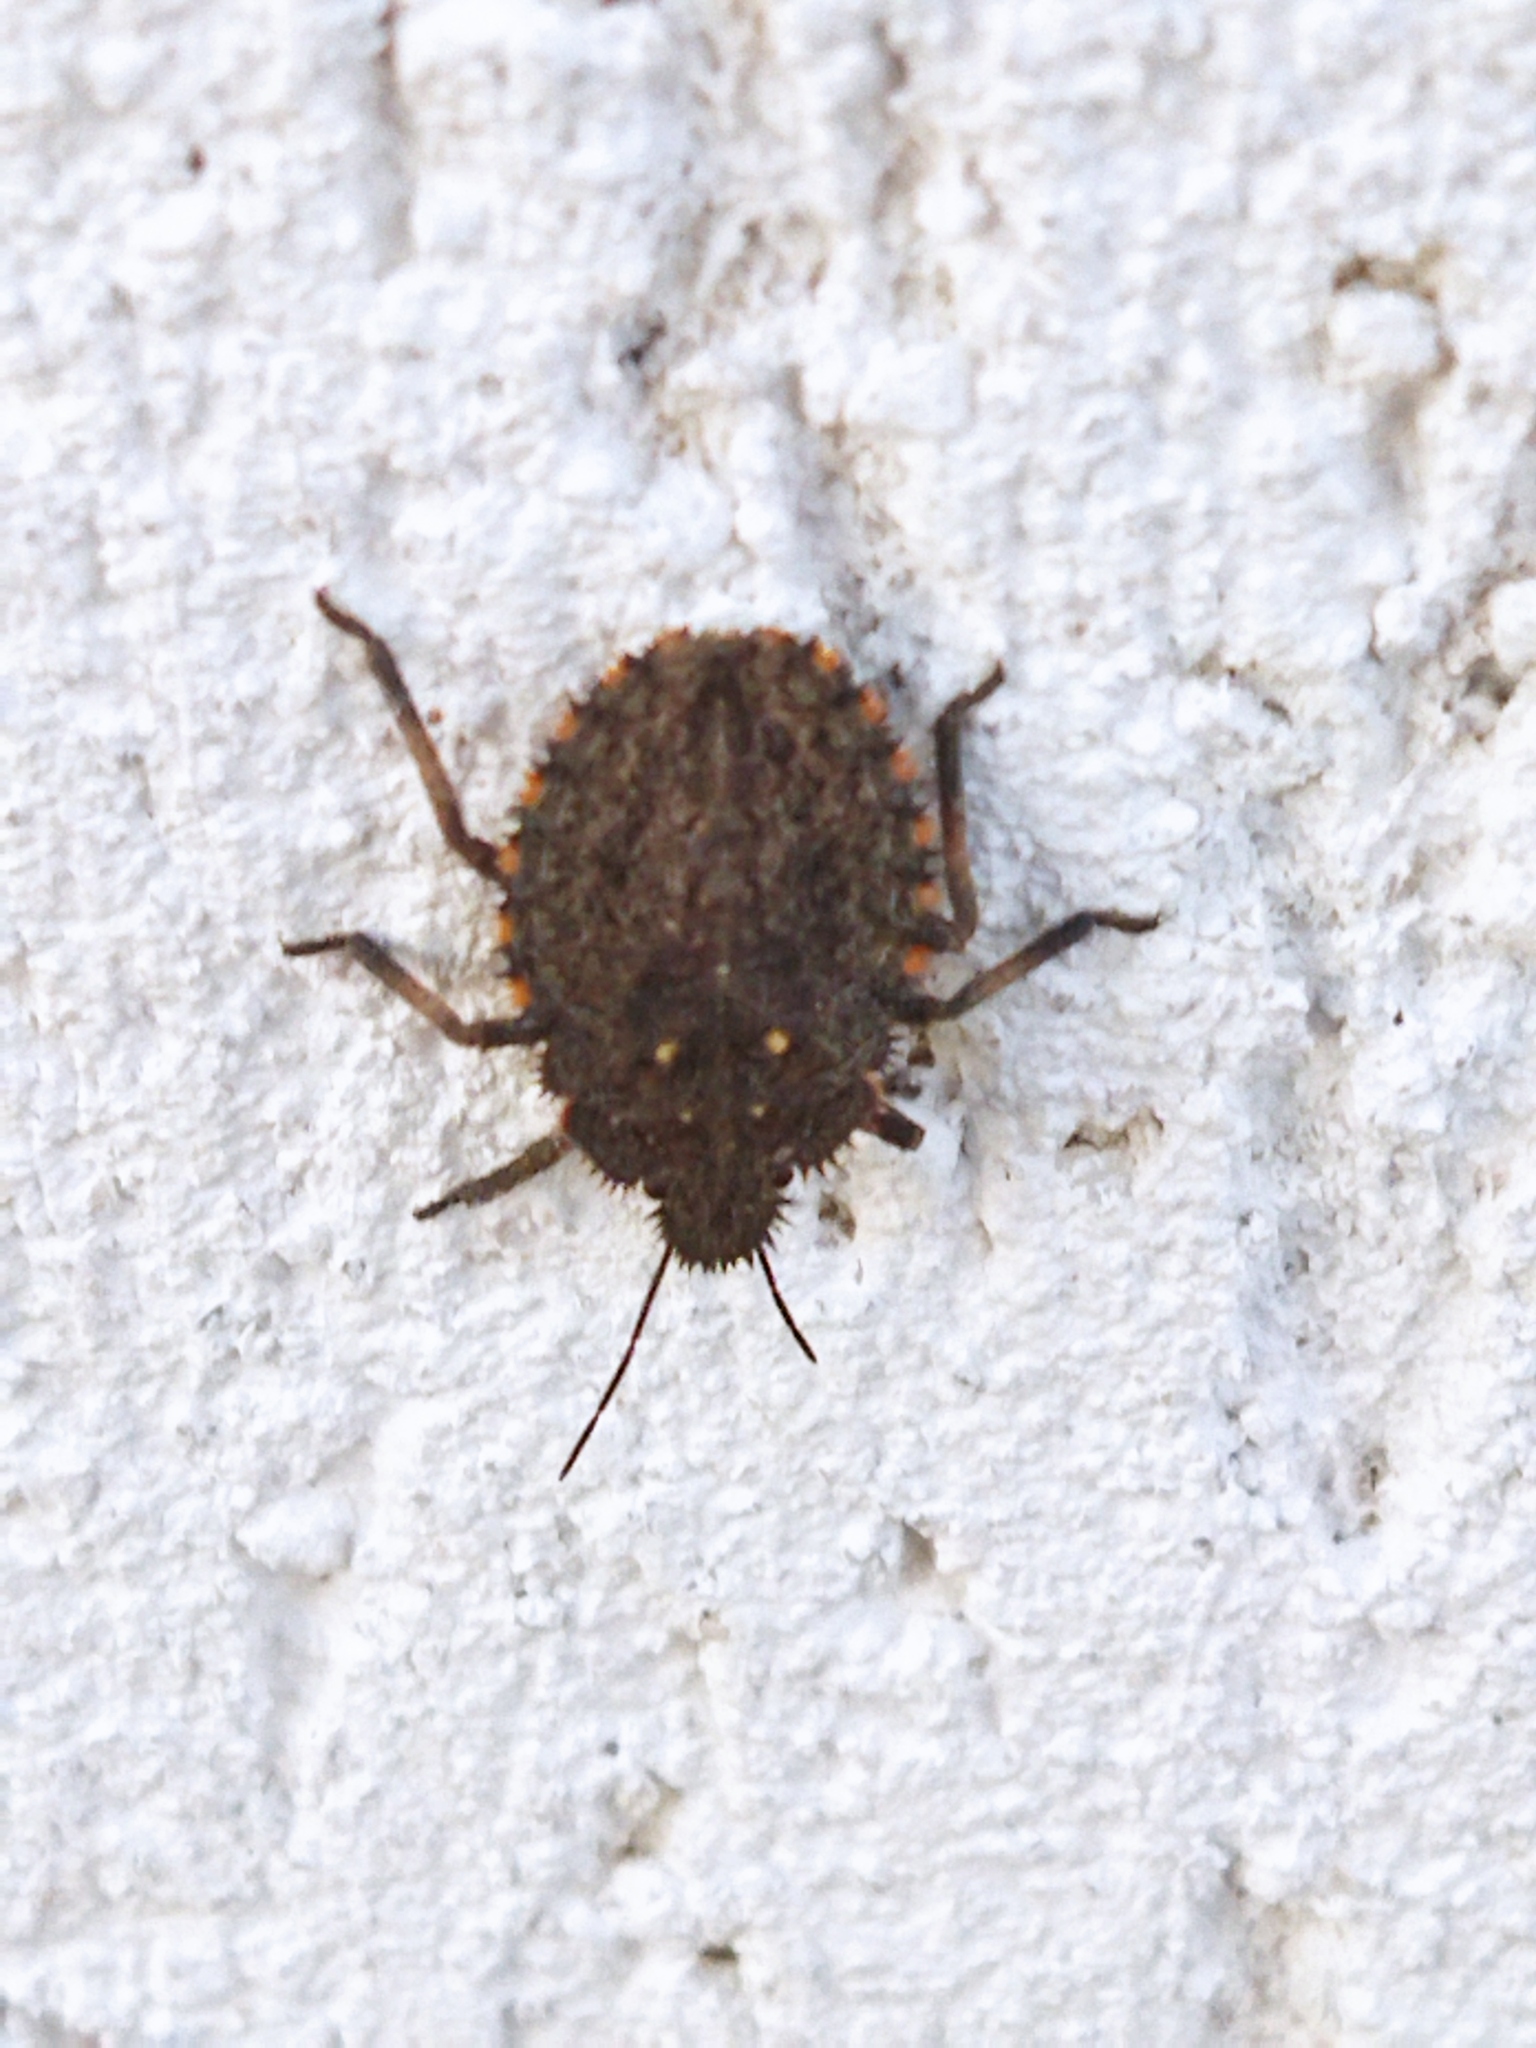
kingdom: Animalia
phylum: Arthropoda
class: Insecta
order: Hemiptera
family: Pentatomidae
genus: Mustha
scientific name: Mustha spinosula
